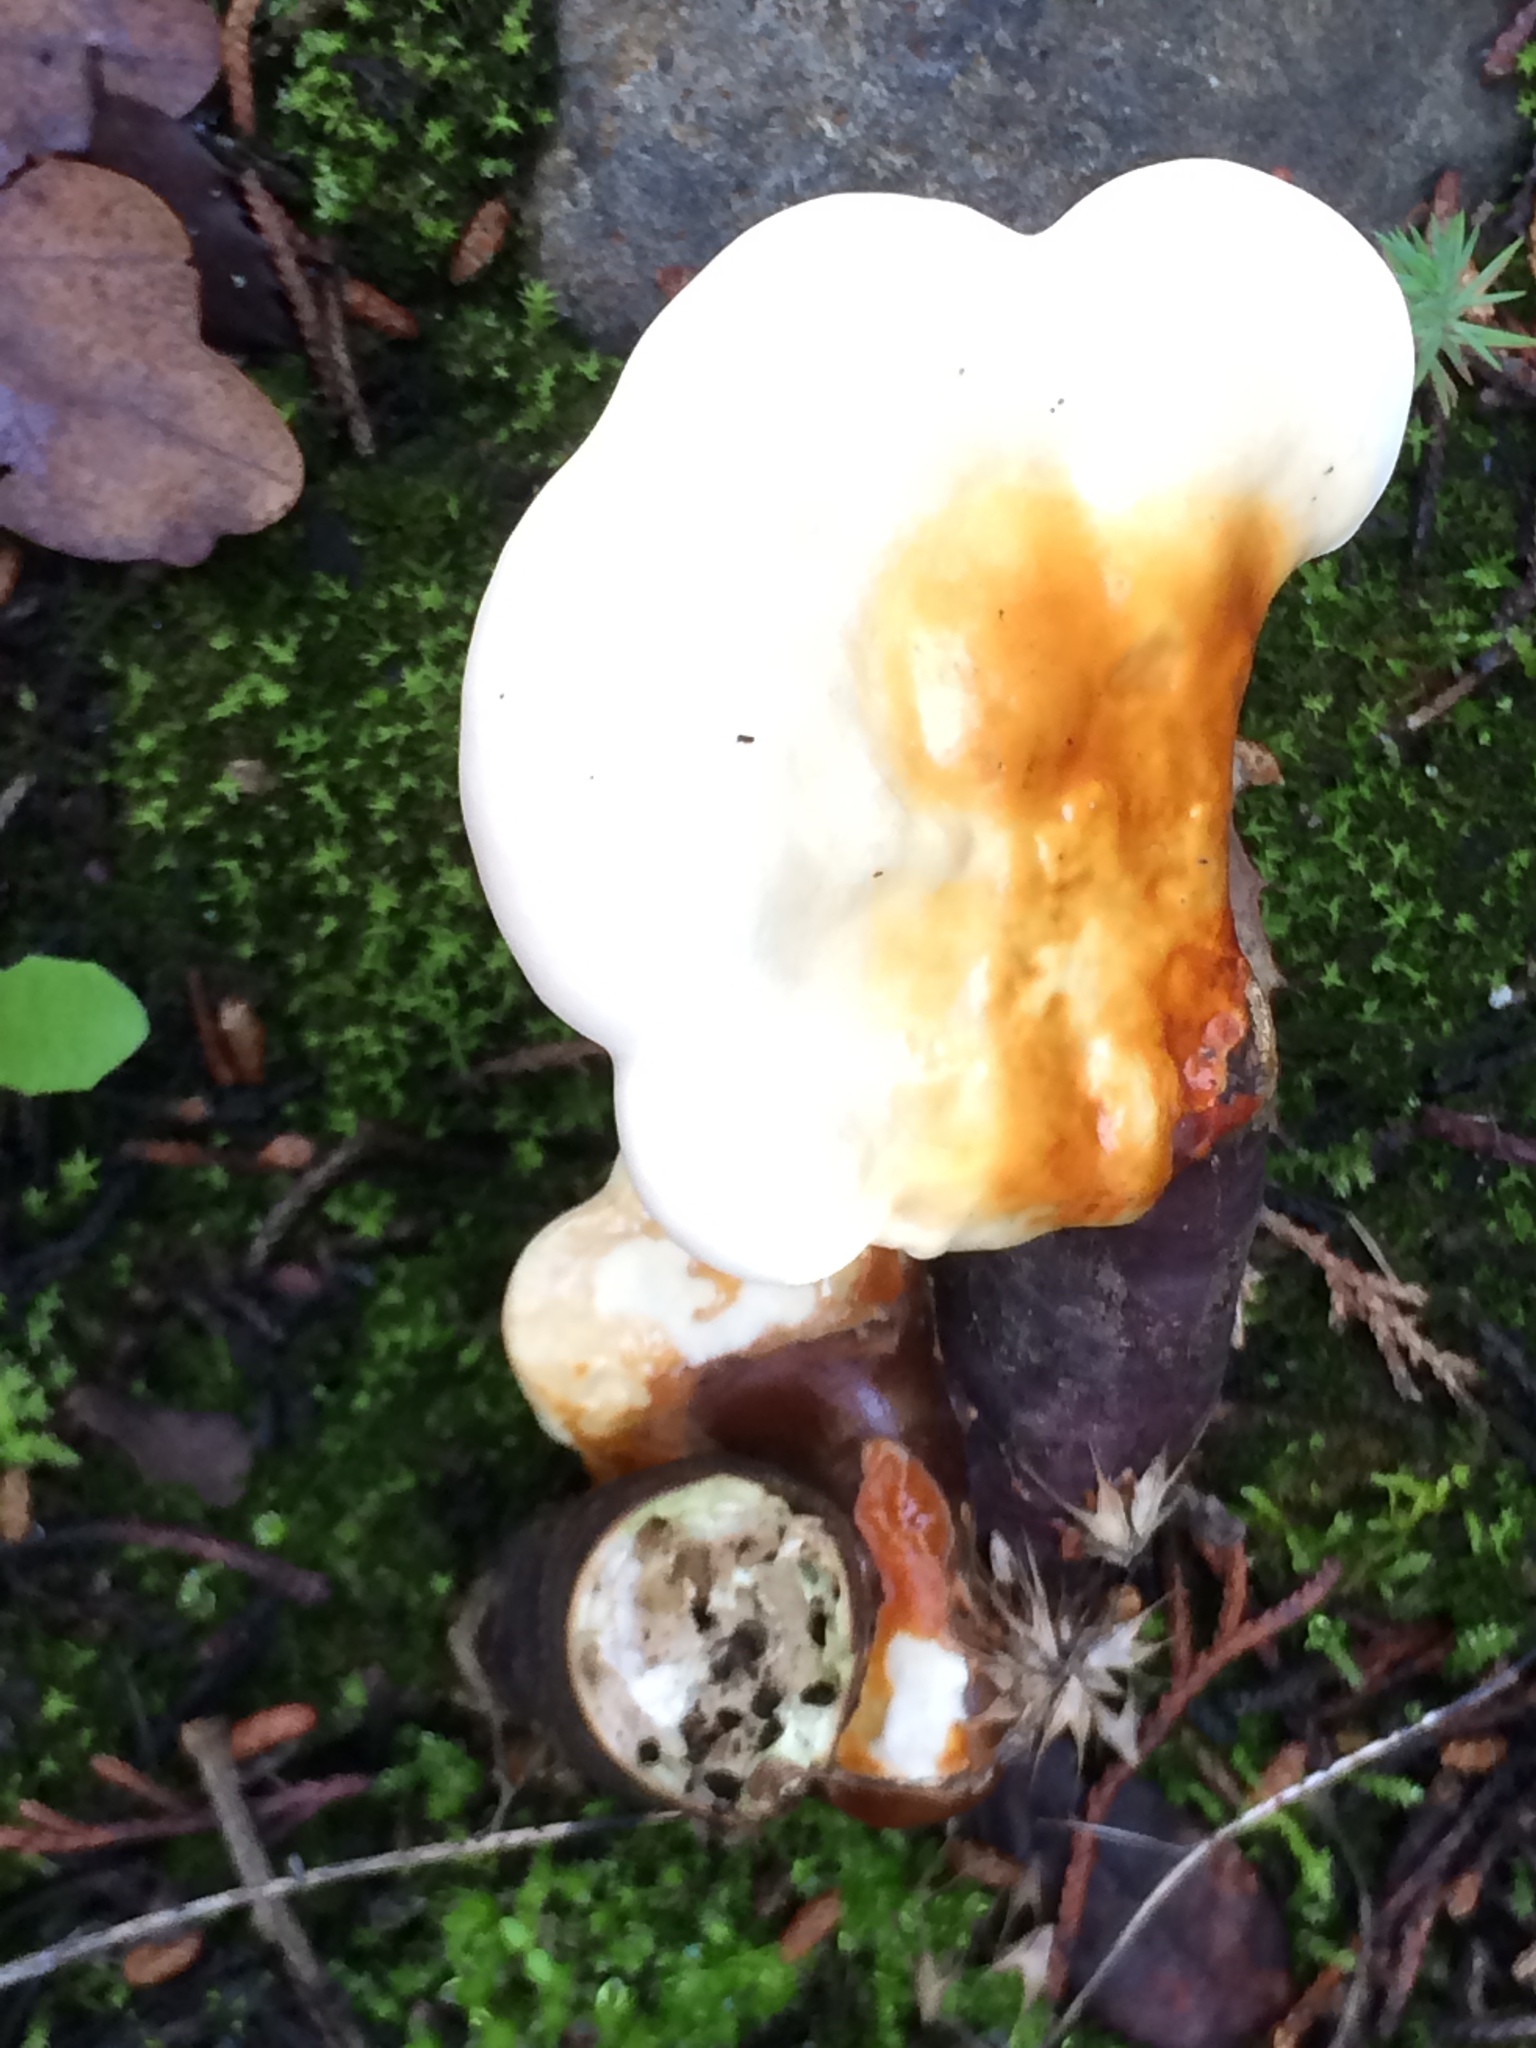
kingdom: Fungi
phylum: Basidiomycota
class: Agaricomycetes
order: Polyporales
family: Polyporaceae
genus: Ganoderma
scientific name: Ganoderma lucidum
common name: Lacquered bracket
